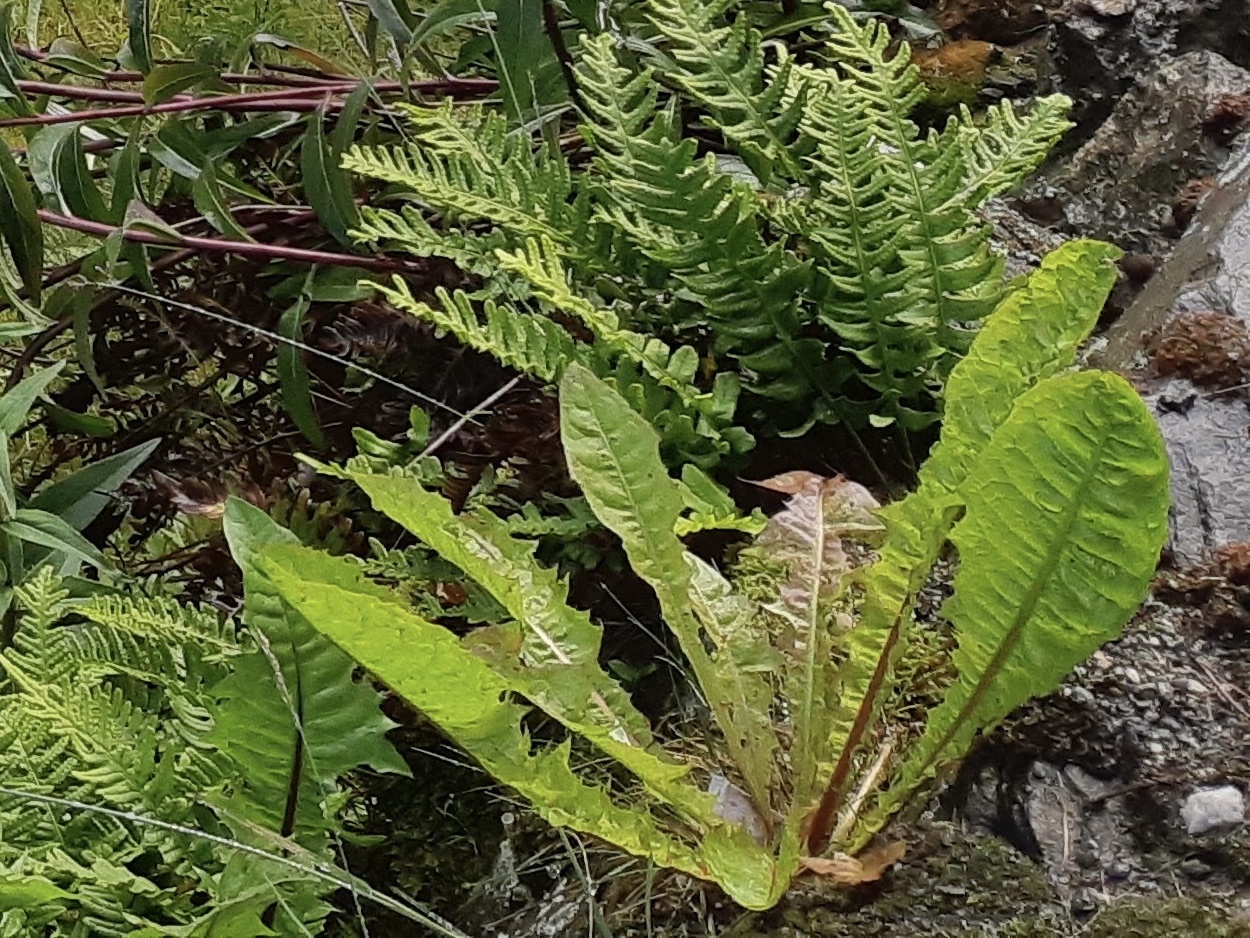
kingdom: Plantae
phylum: Tracheophyta
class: Magnoliopsida
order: Asterales
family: Asteraceae
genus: Taraxacum
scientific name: Taraxacum officinale
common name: Common dandelion
